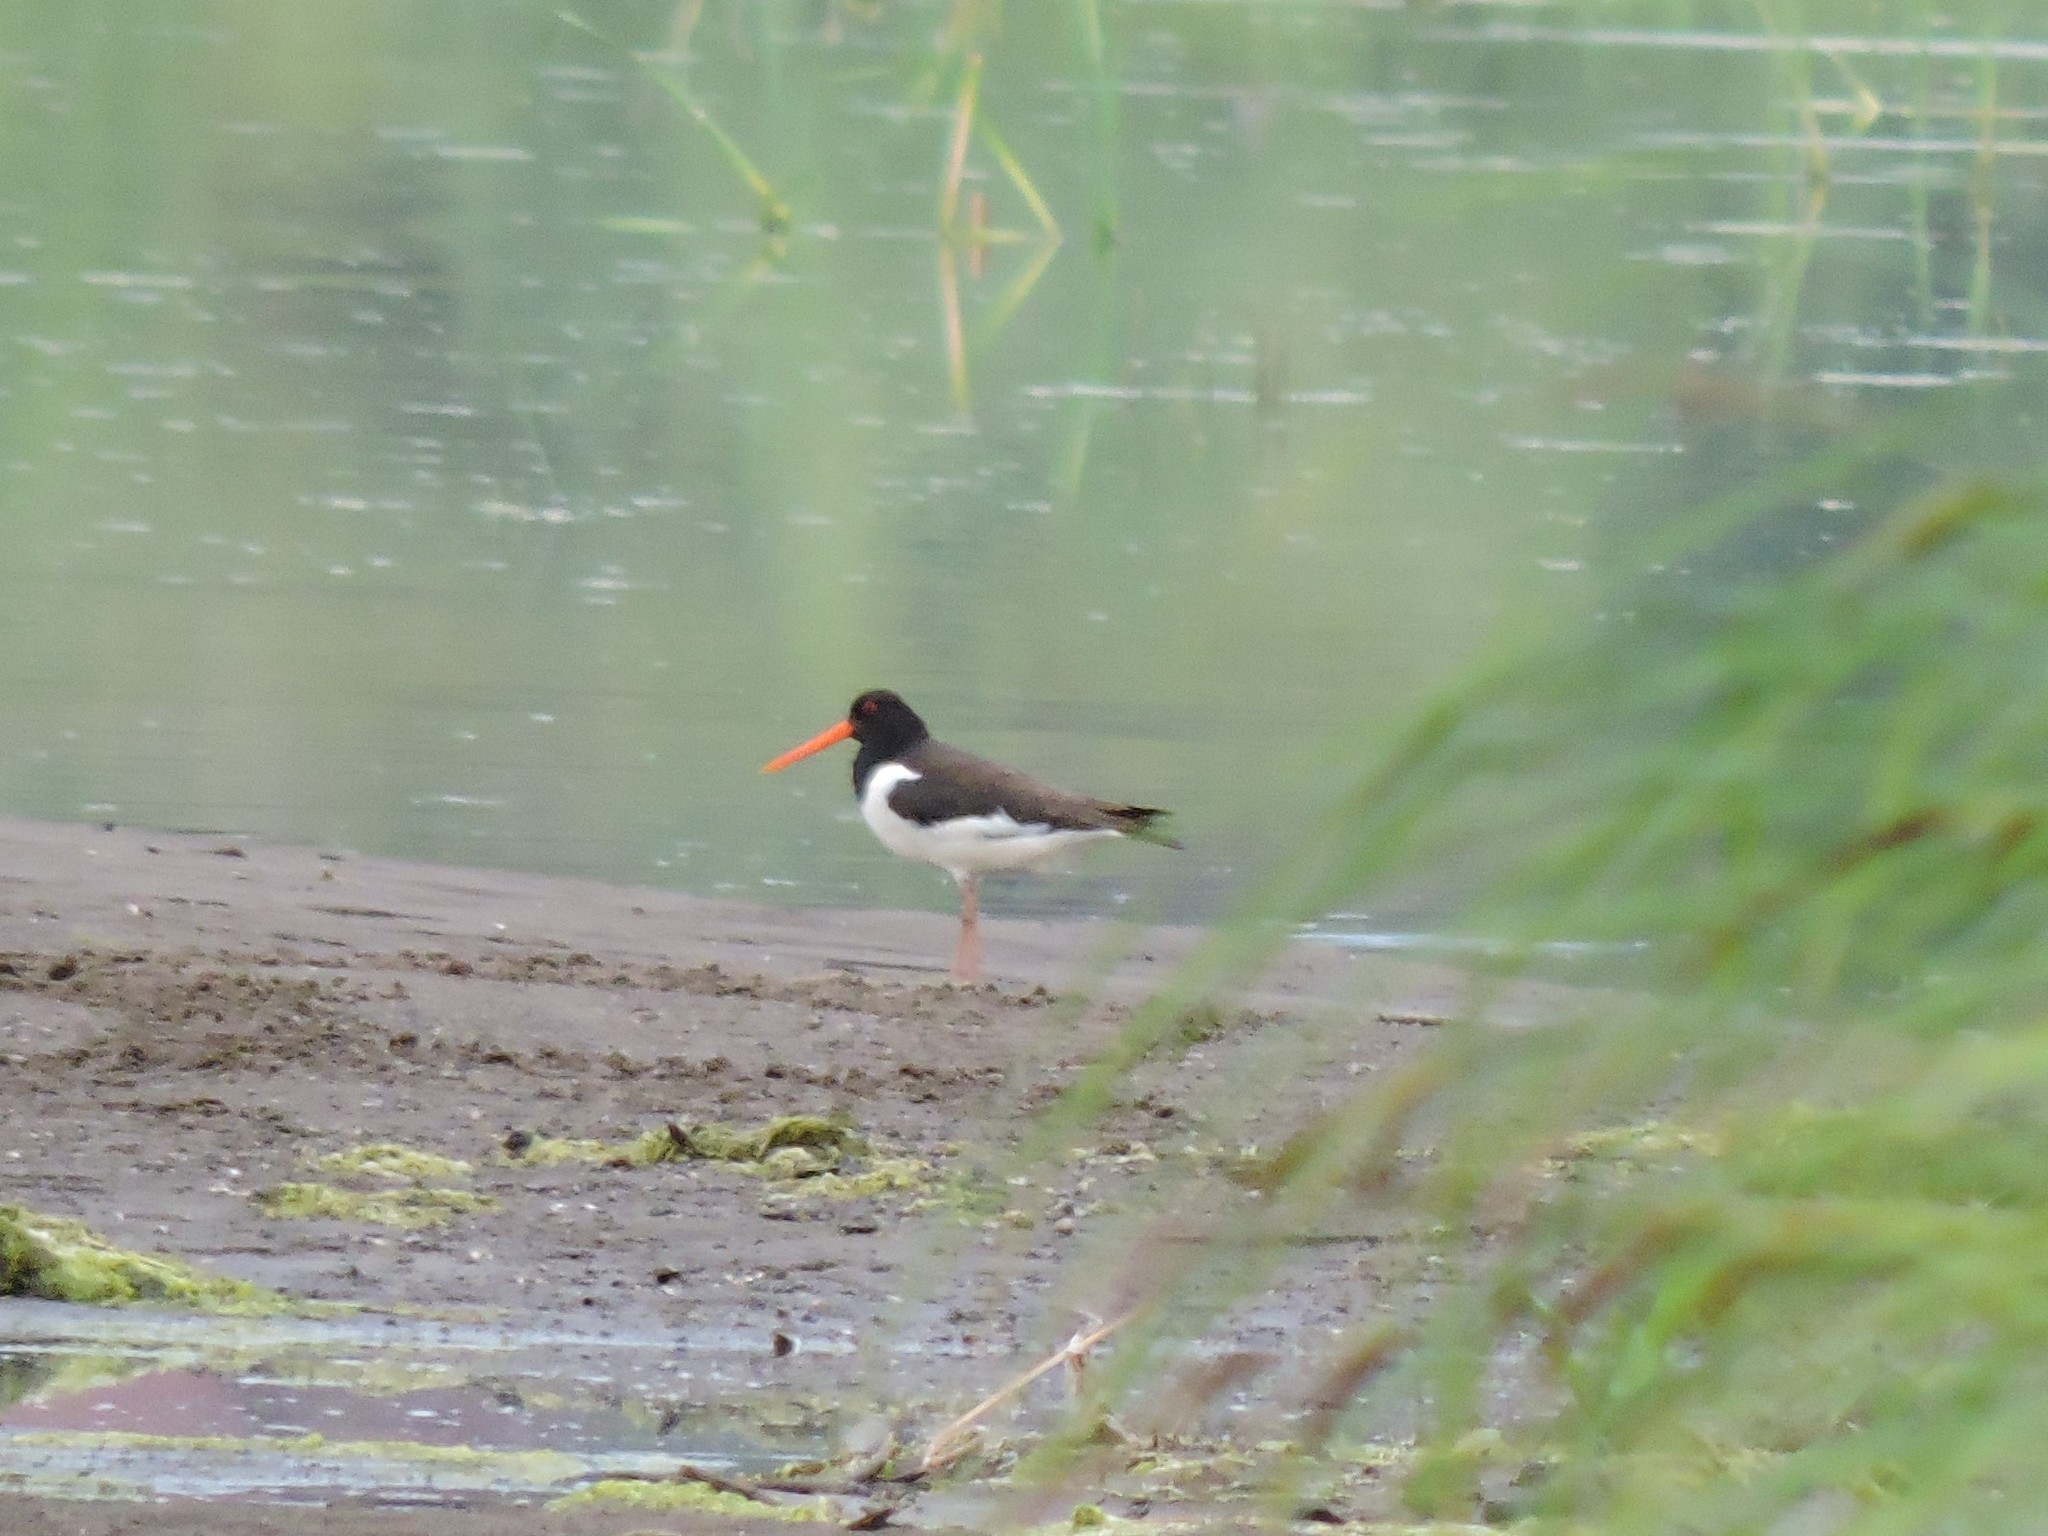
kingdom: Animalia
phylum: Chordata
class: Aves
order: Charadriiformes
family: Haematopodidae
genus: Haematopus
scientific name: Haematopus ostralegus
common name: Eurasian oystercatcher
